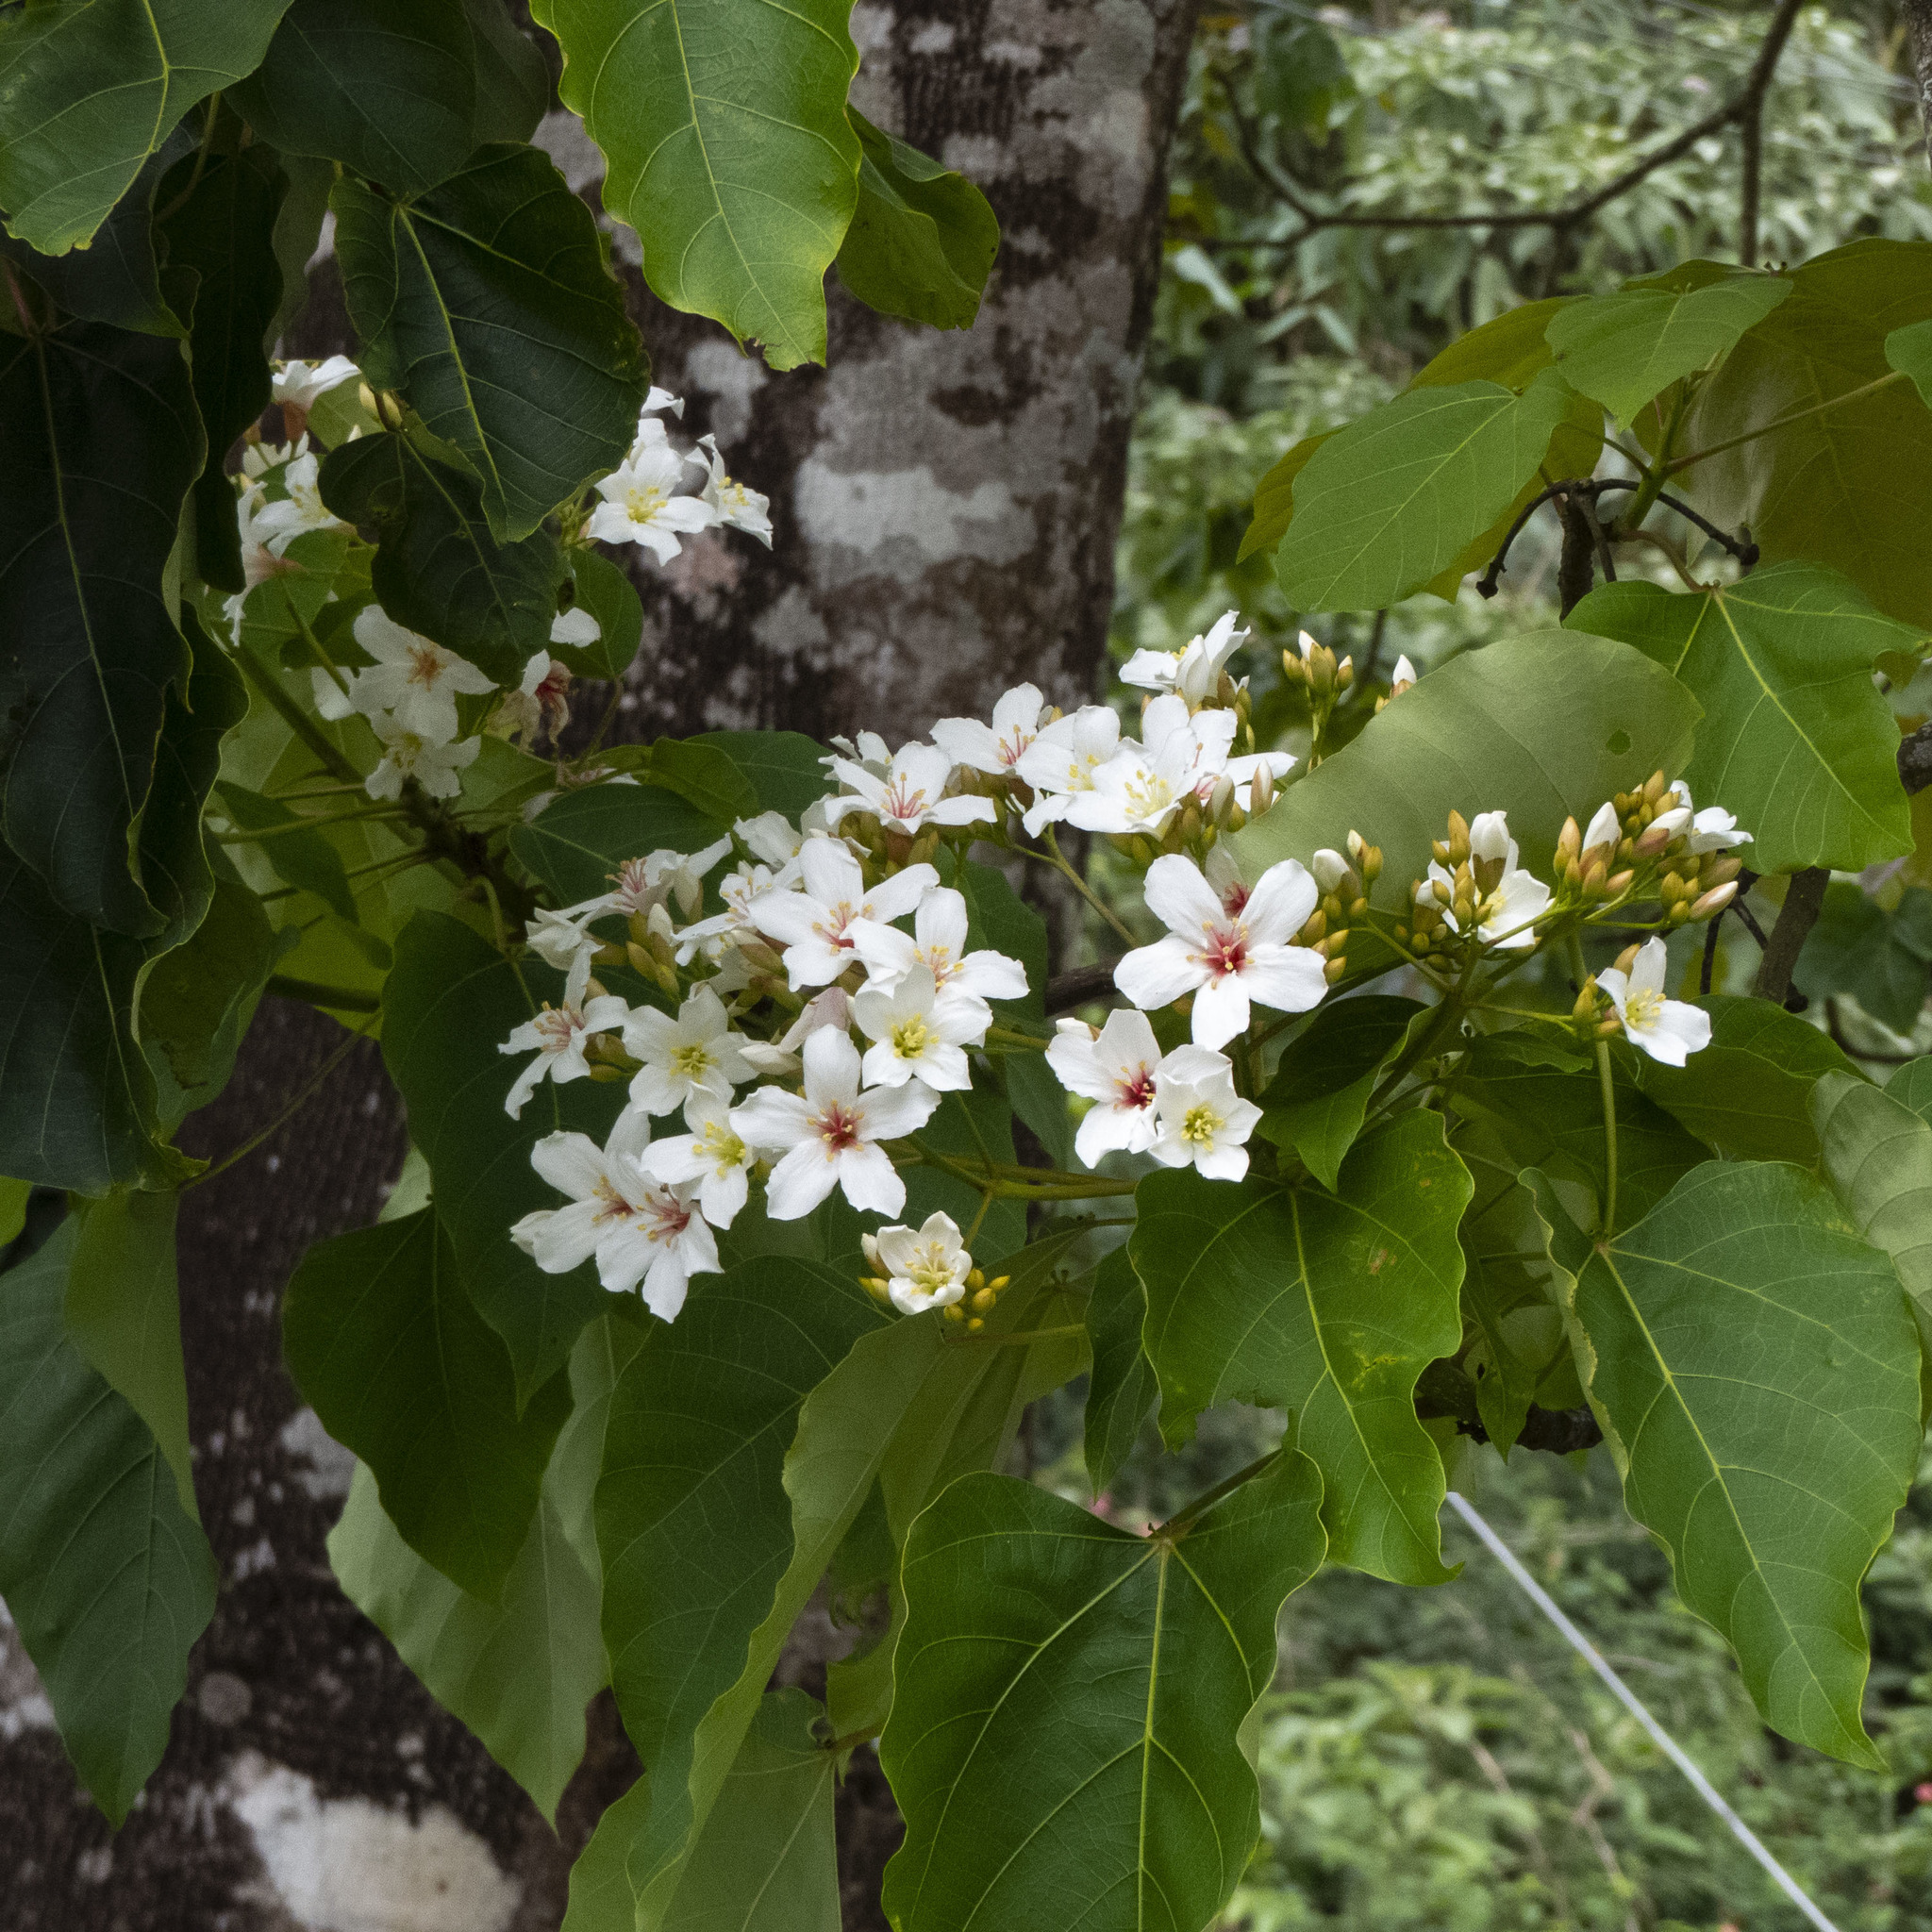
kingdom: Plantae
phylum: Tracheophyta
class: Magnoliopsida
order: Malpighiales
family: Euphorbiaceae
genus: Vernicia
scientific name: Vernicia montana
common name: Mu oil tree
